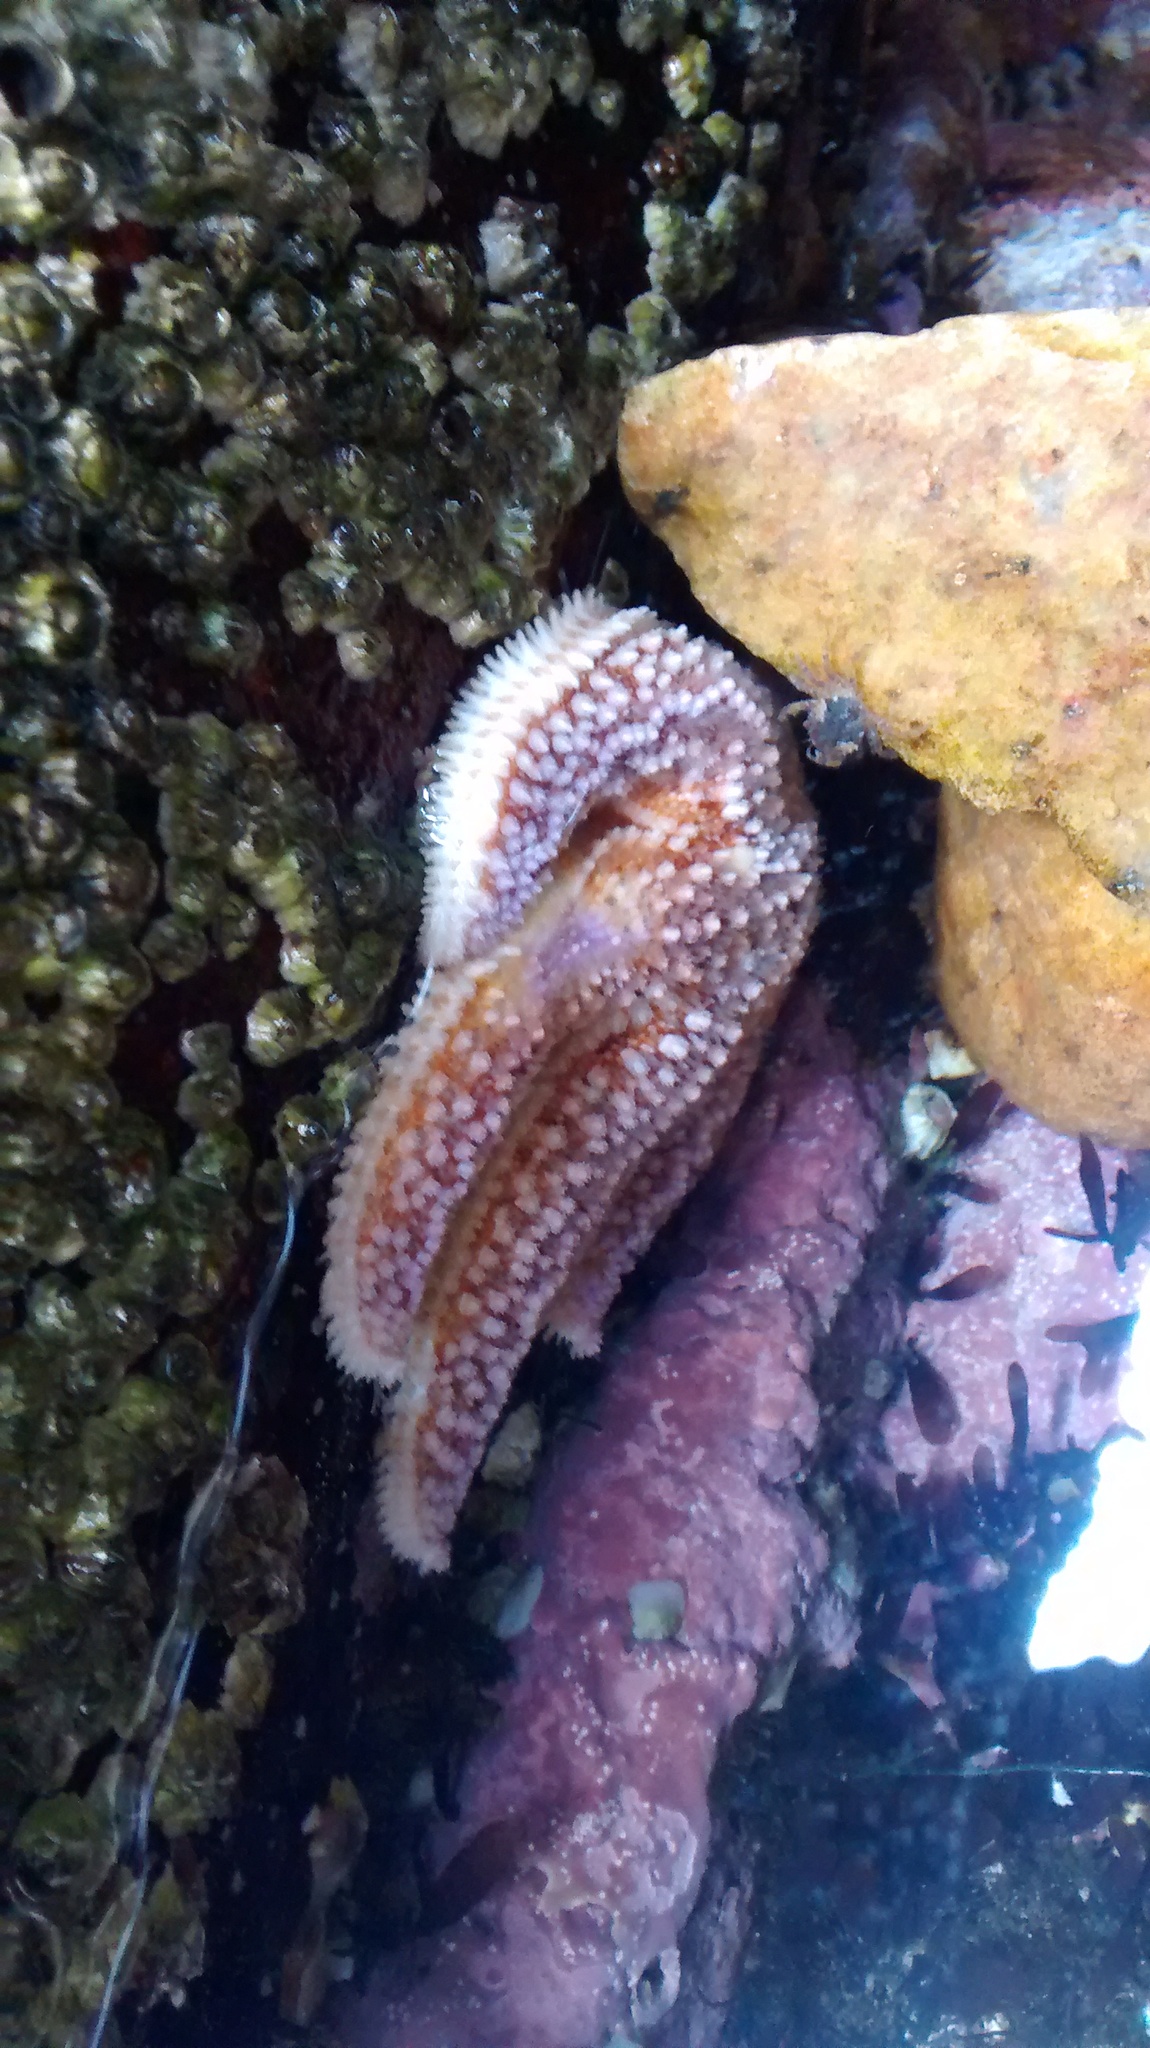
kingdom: Animalia
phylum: Echinodermata
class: Asteroidea
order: Forcipulatida
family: Asteriidae
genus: Asterias
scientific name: Asterias rubens
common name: Common starfish
